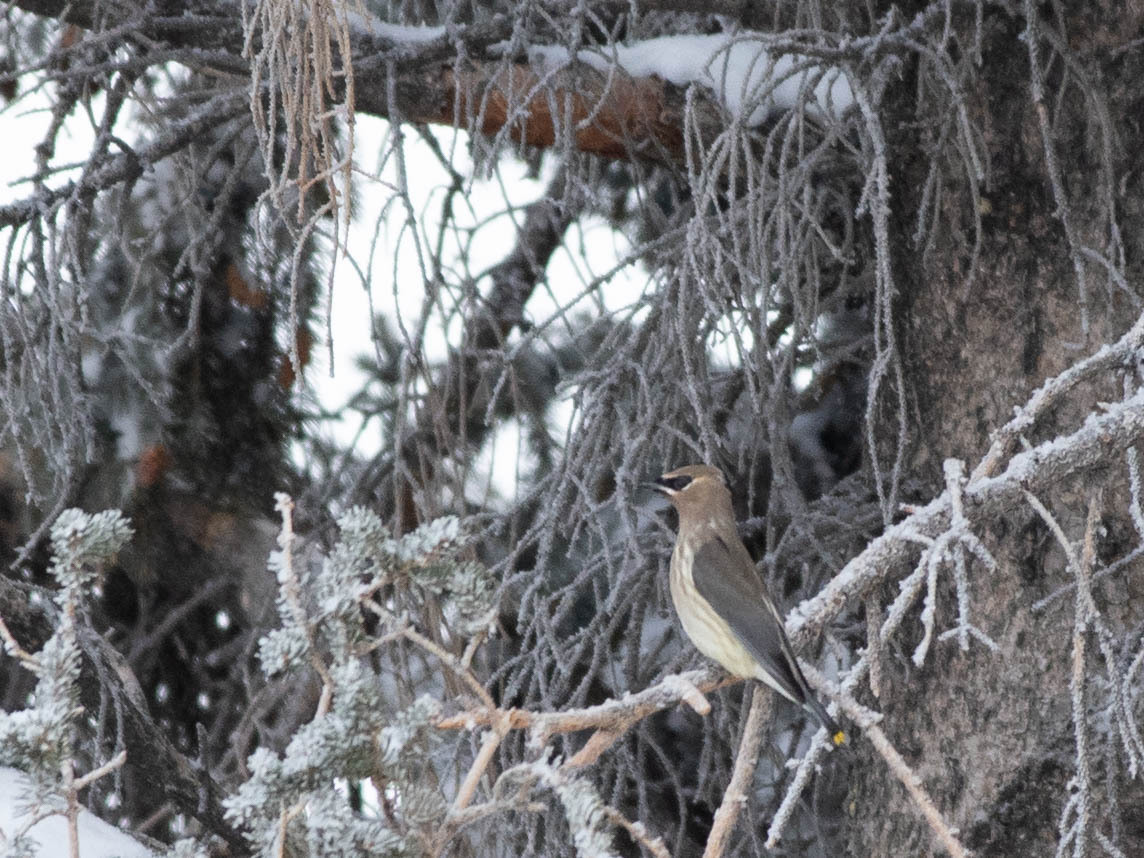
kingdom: Animalia
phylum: Chordata
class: Aves
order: Passeriformes
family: Bombycillidae
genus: Bombycilla
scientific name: Bombycilla cedrorum
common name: Cedar waxwing
